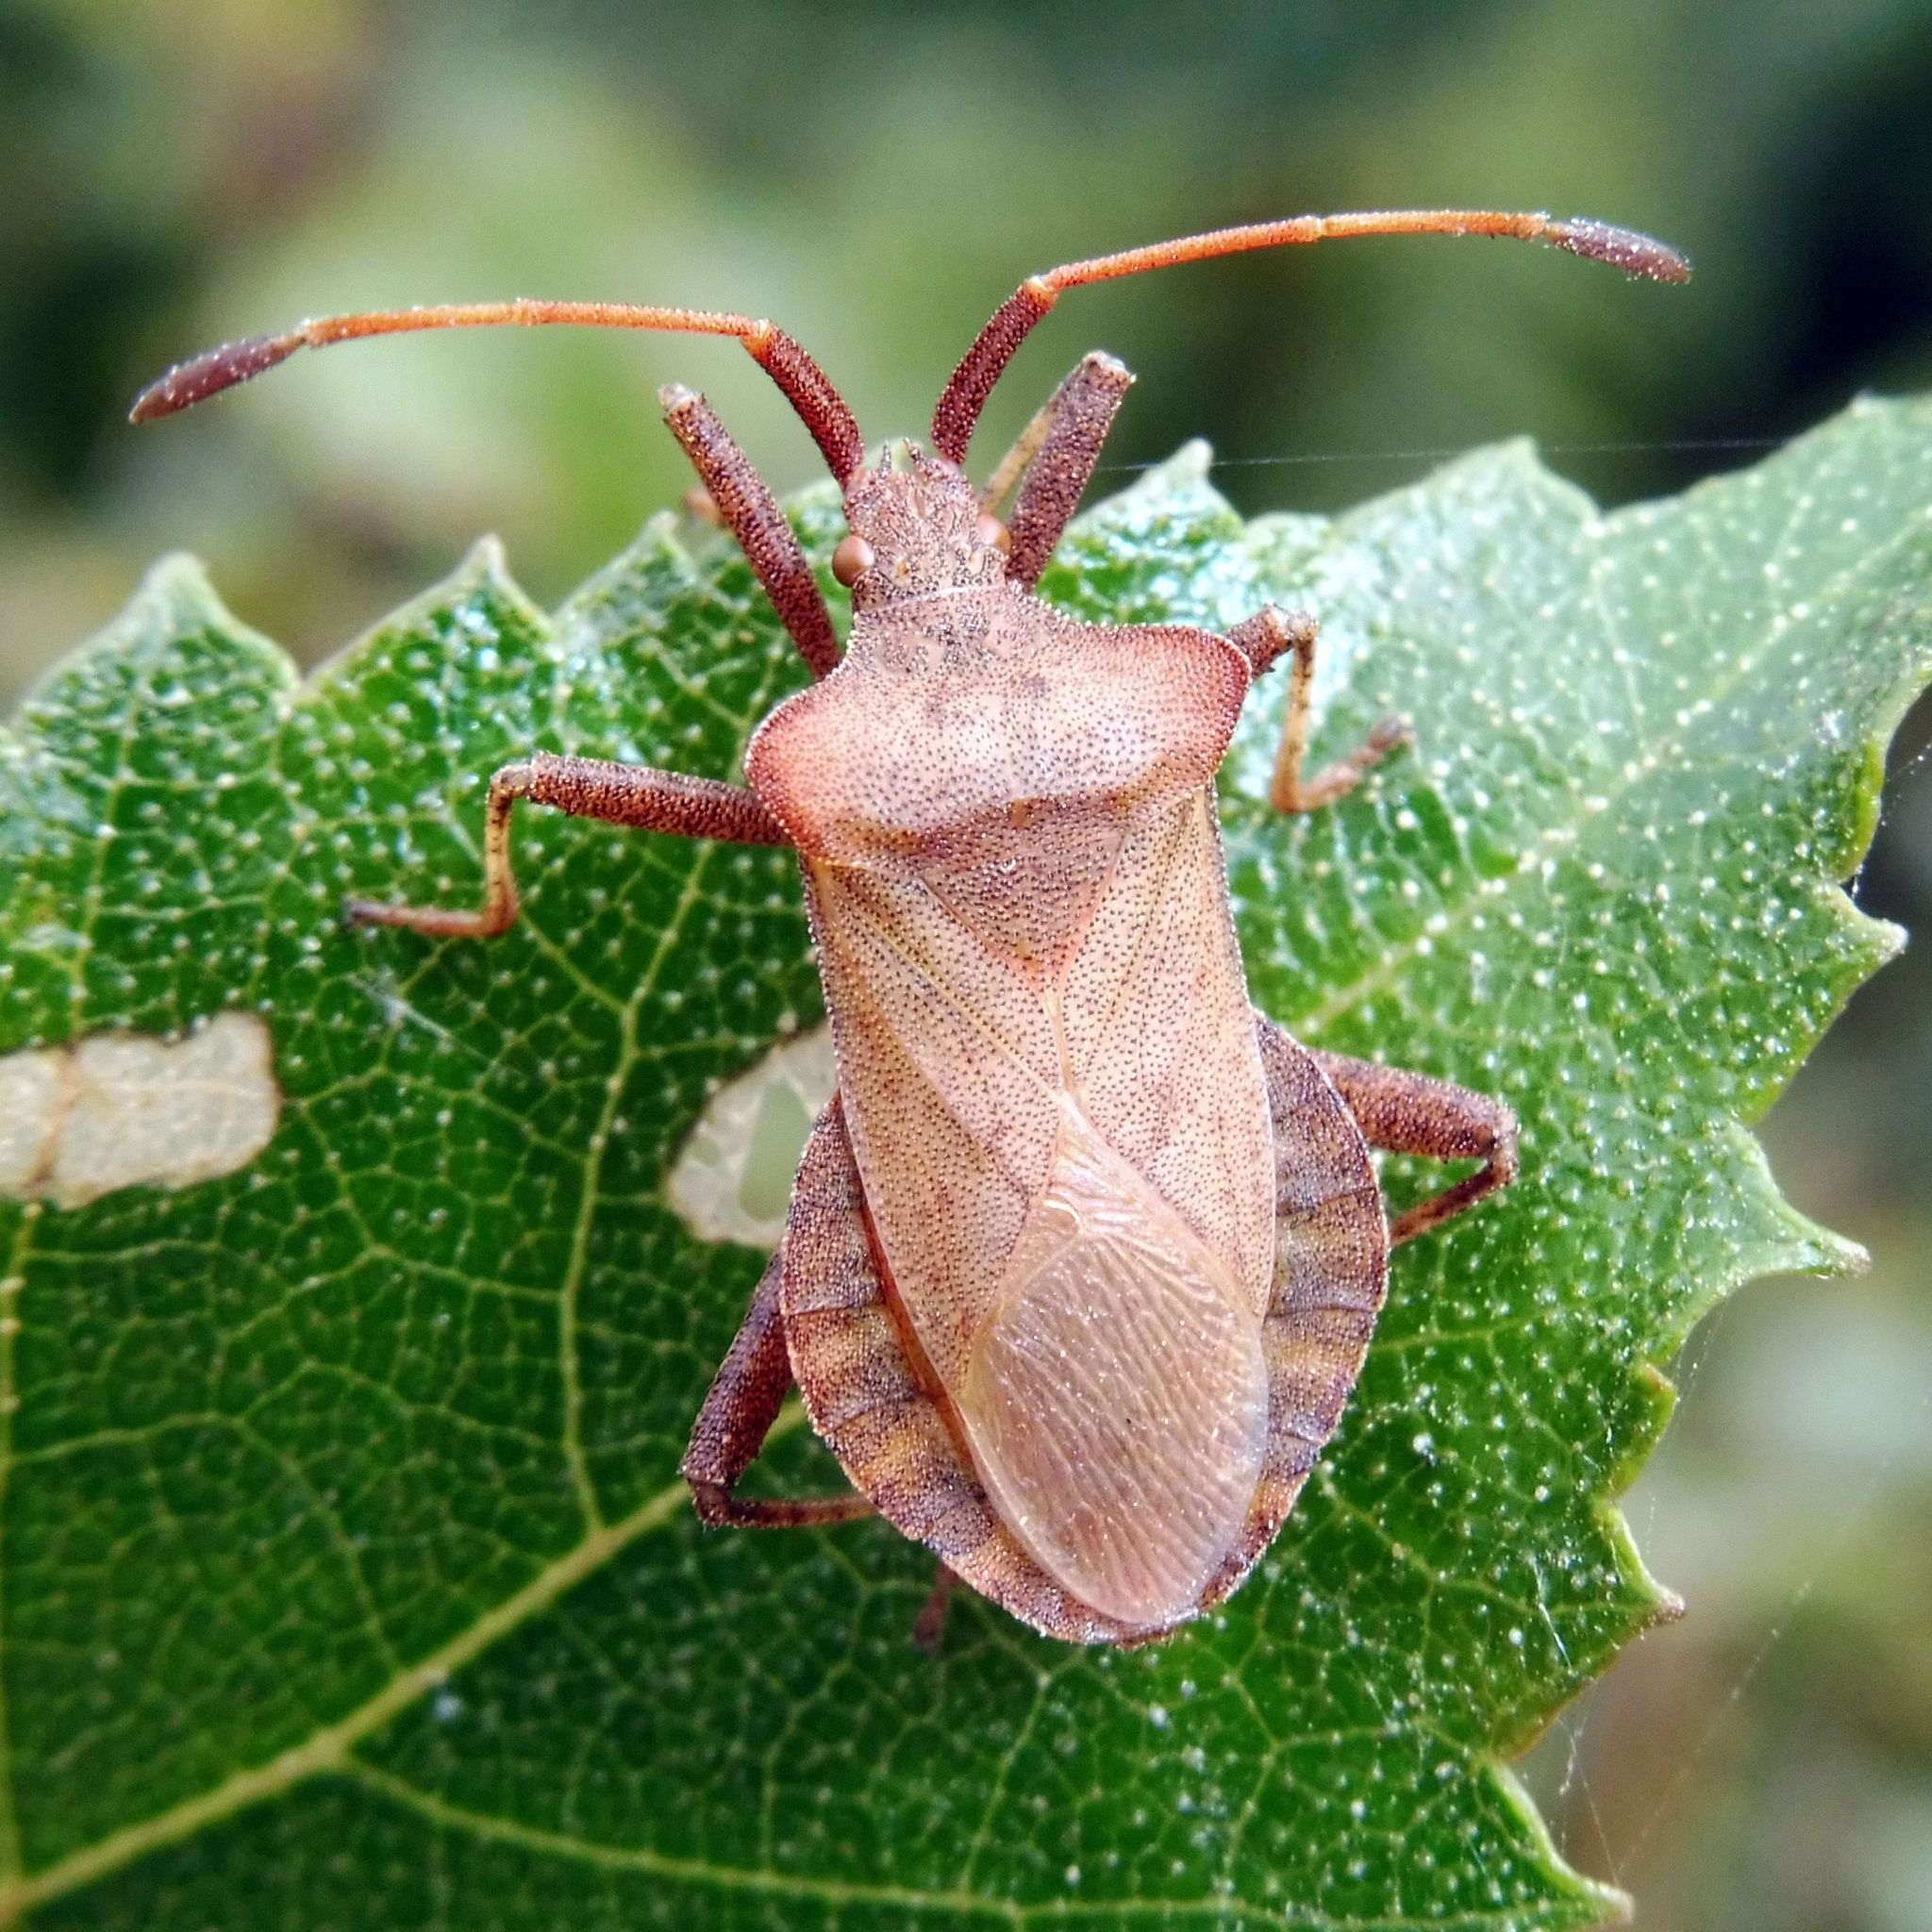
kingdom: Animalia
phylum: Arthropoda
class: Insecta
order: Hemiptera
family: Coreidae
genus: Coreus
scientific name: Coreus marginatus
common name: Dock bug
